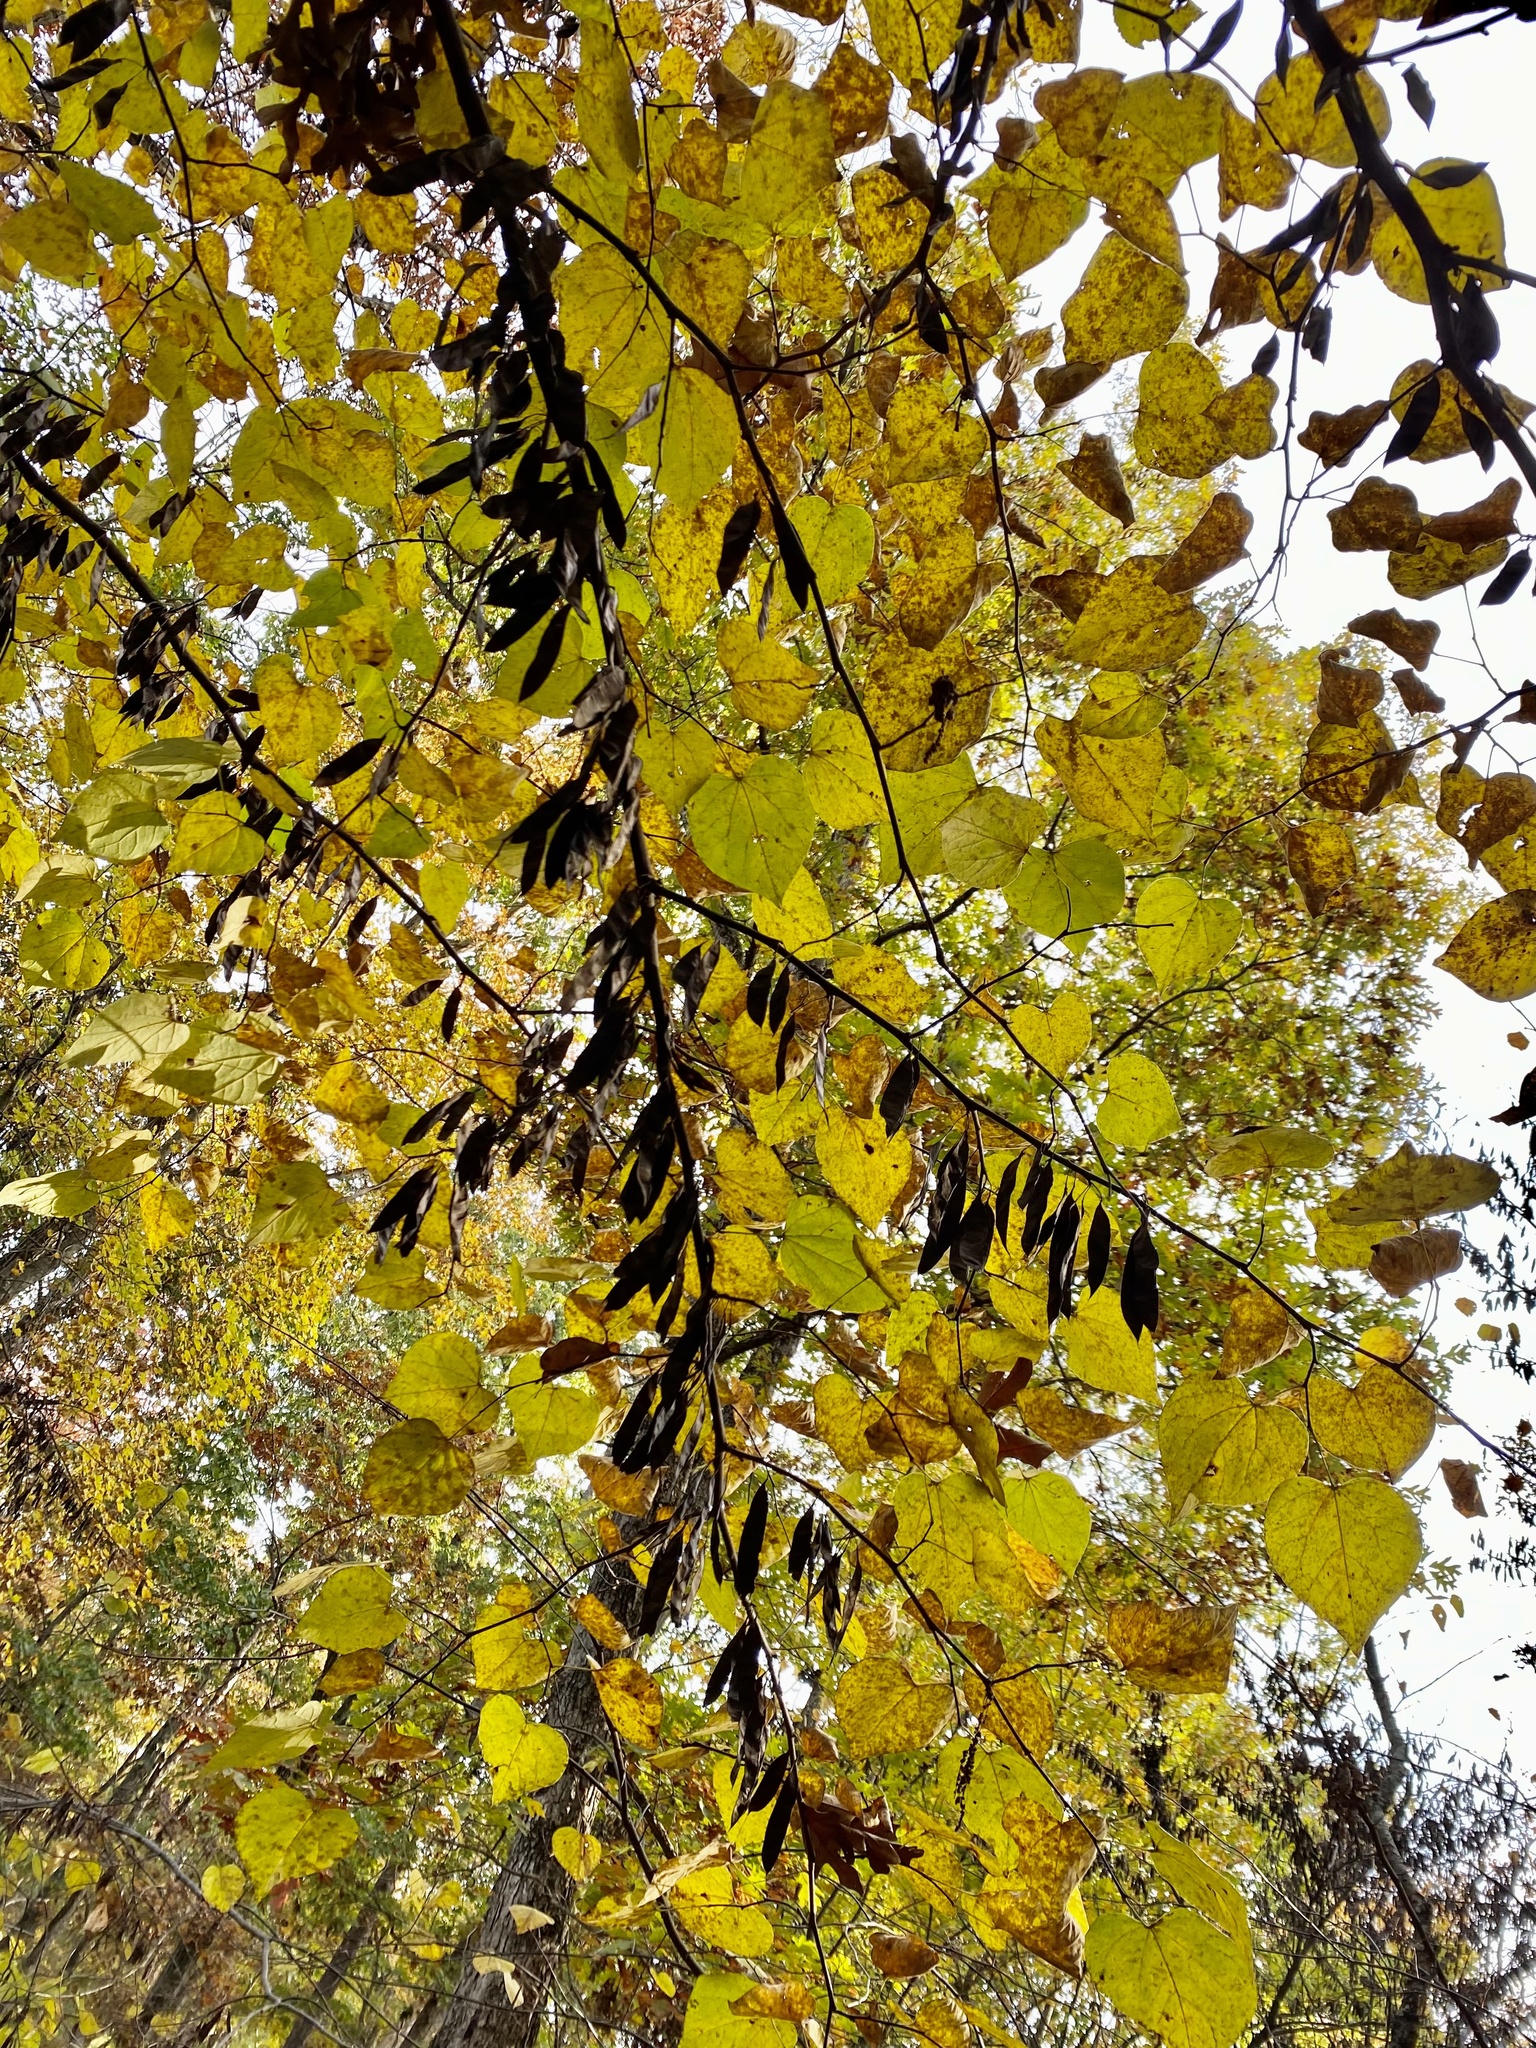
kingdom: Plantae
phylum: Tracheophyta
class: Magnoliopsida
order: Fabales
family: Fabaceae
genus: Cercis
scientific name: Cercis canadensis
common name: Eastern redbud
